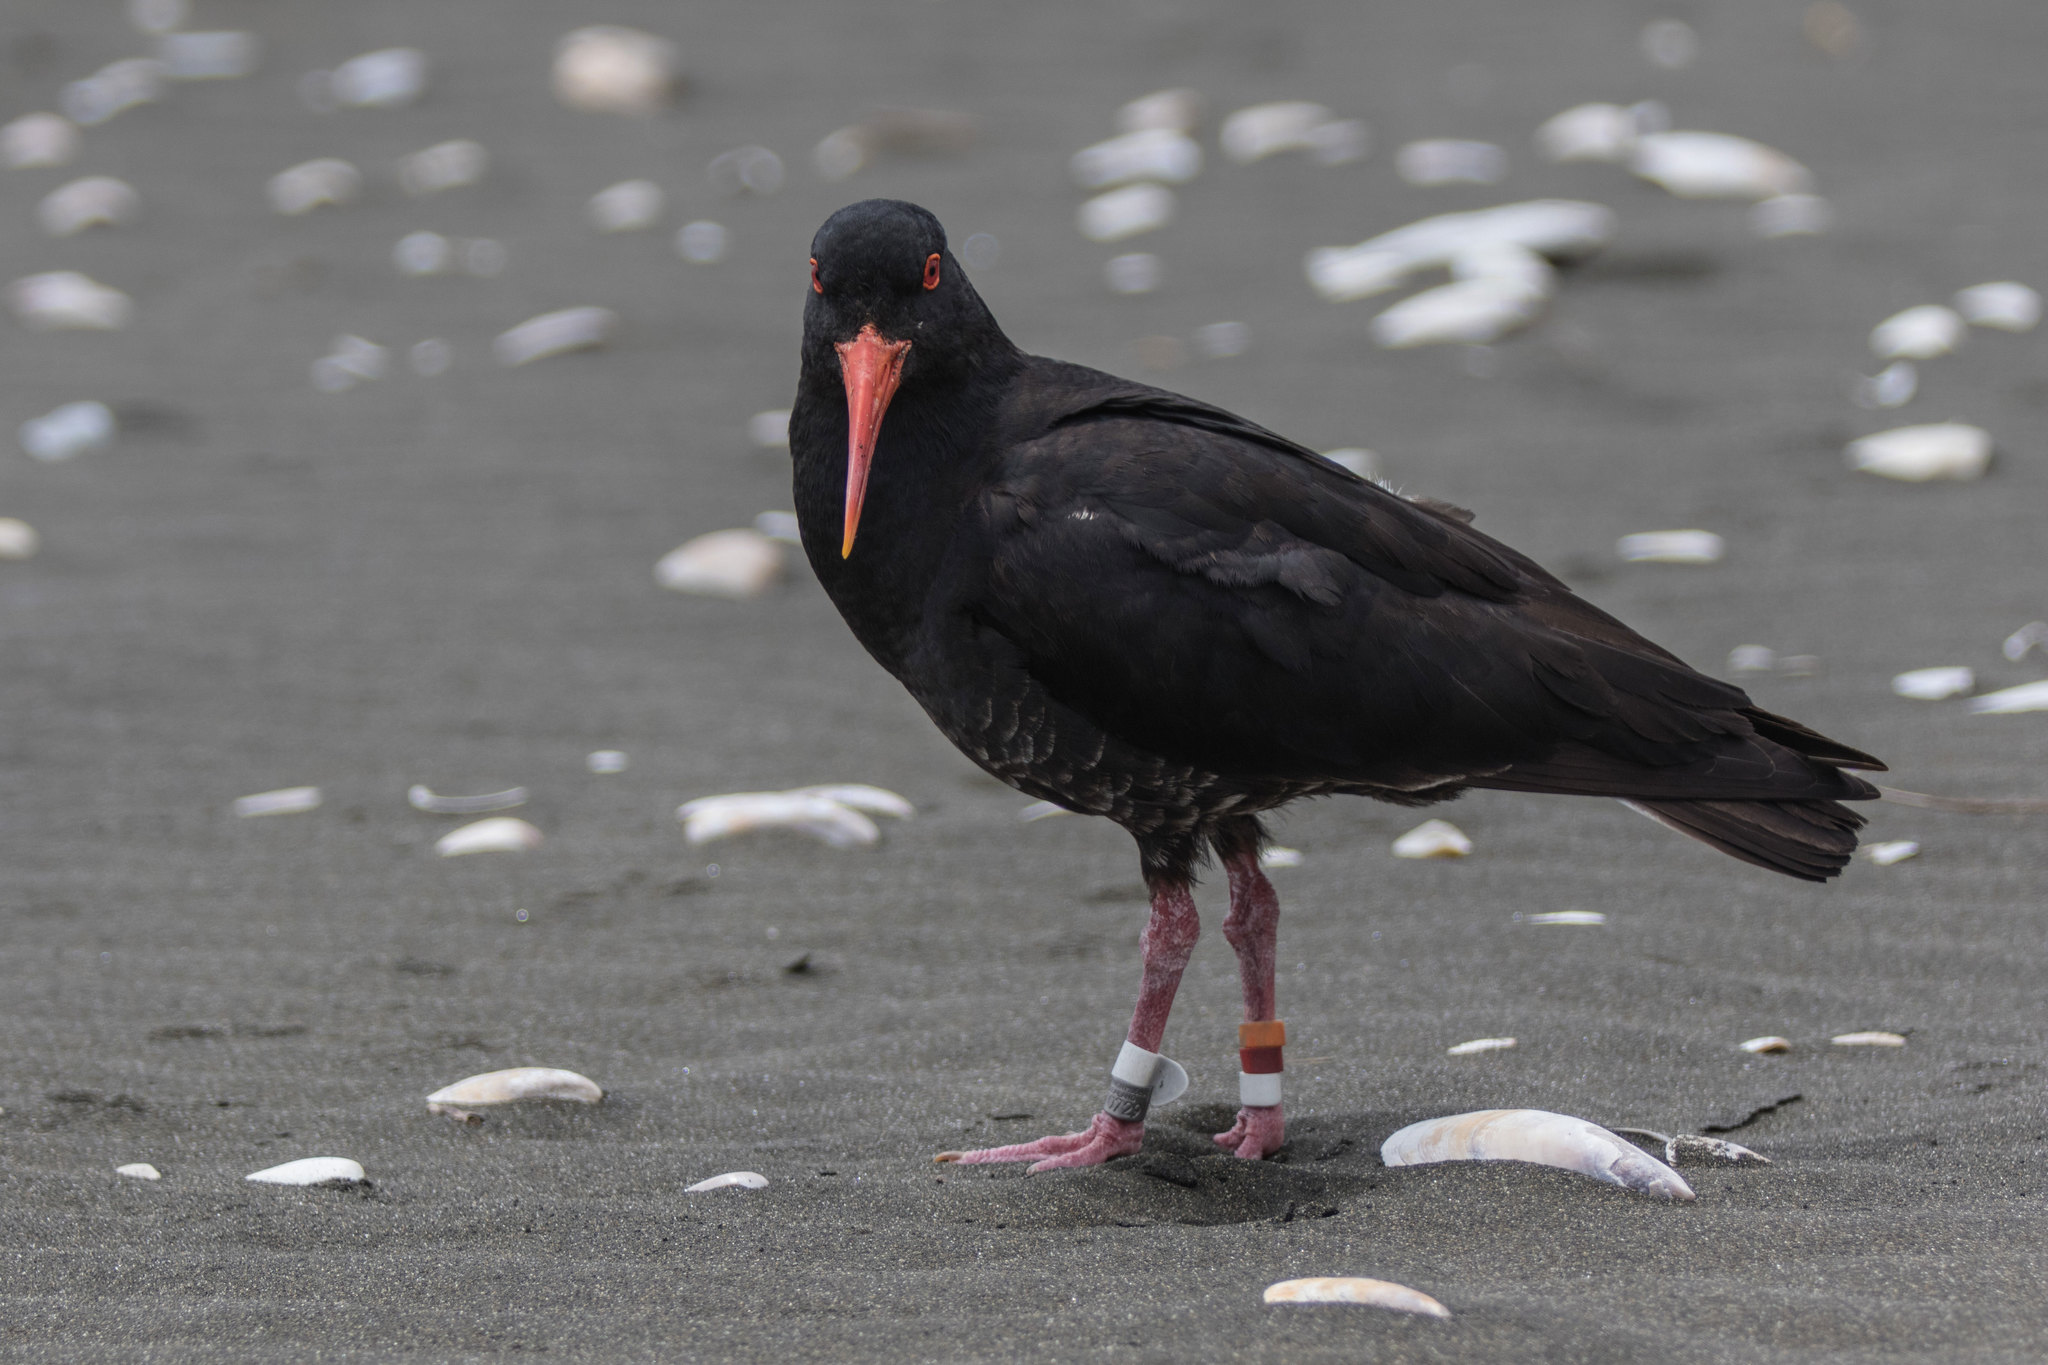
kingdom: Animalia
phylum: Chordata
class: Aves
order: Charadriiformes
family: Haematopodidae
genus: Haematopus
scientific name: Haematopus unicolor
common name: Variable oystercatcher
